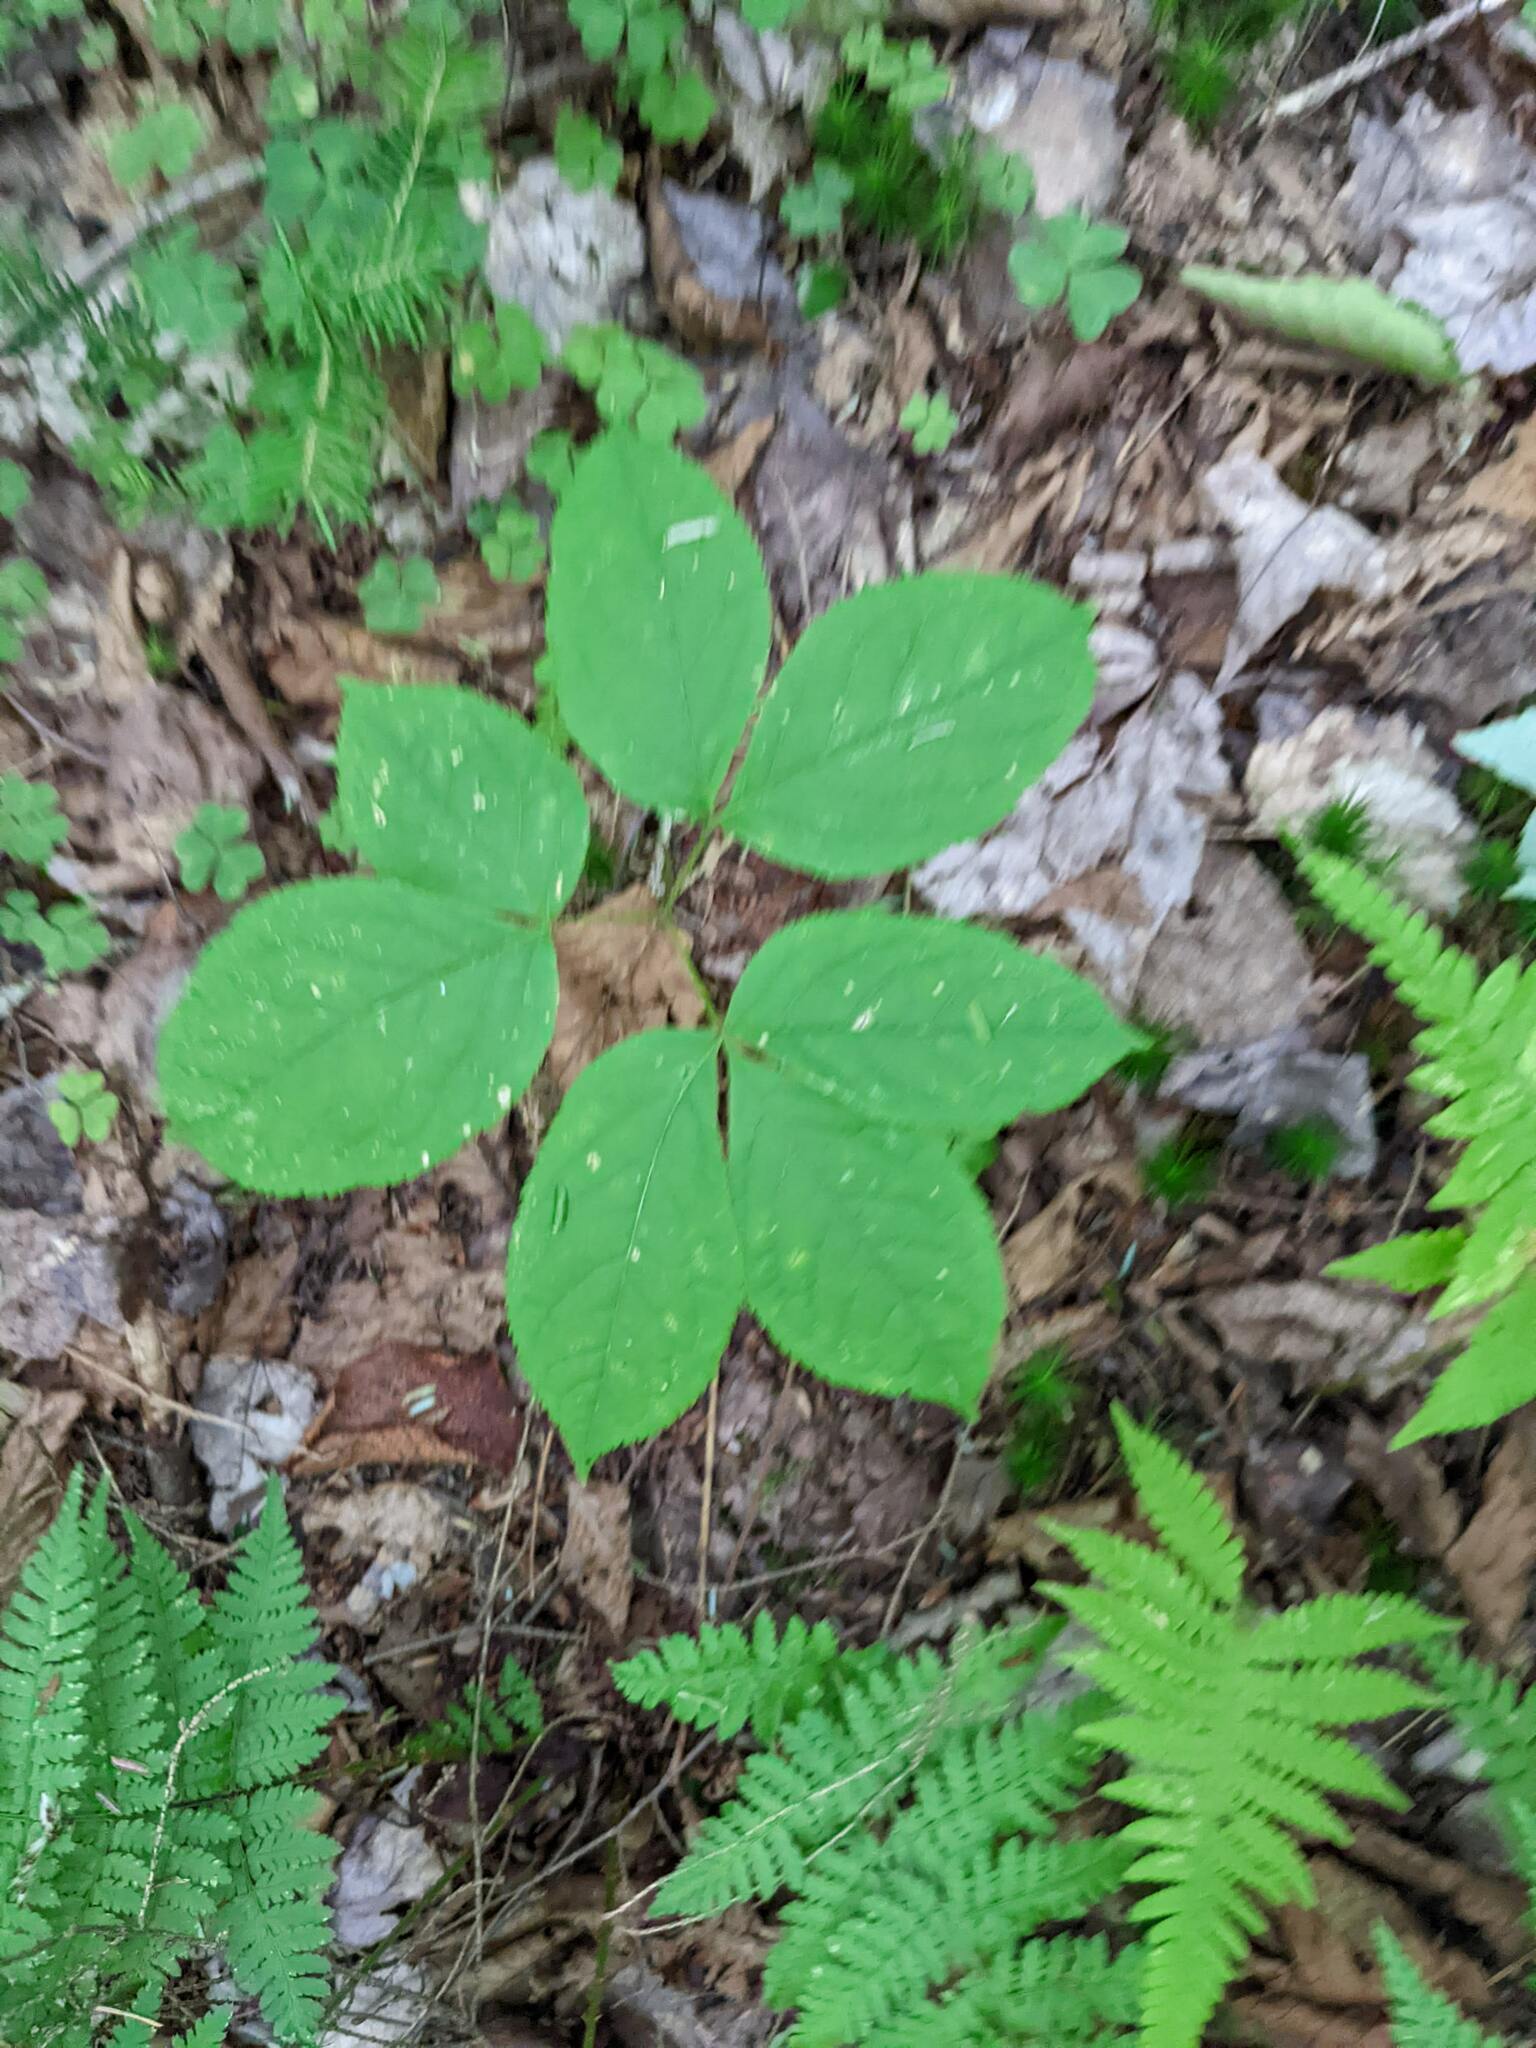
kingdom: Plantae
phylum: Tracheophyta
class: Magnoliopsida
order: Apiales
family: Araliaceae
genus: Aralia
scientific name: Aralia nudicaulis
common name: Wild sarsaparilla
